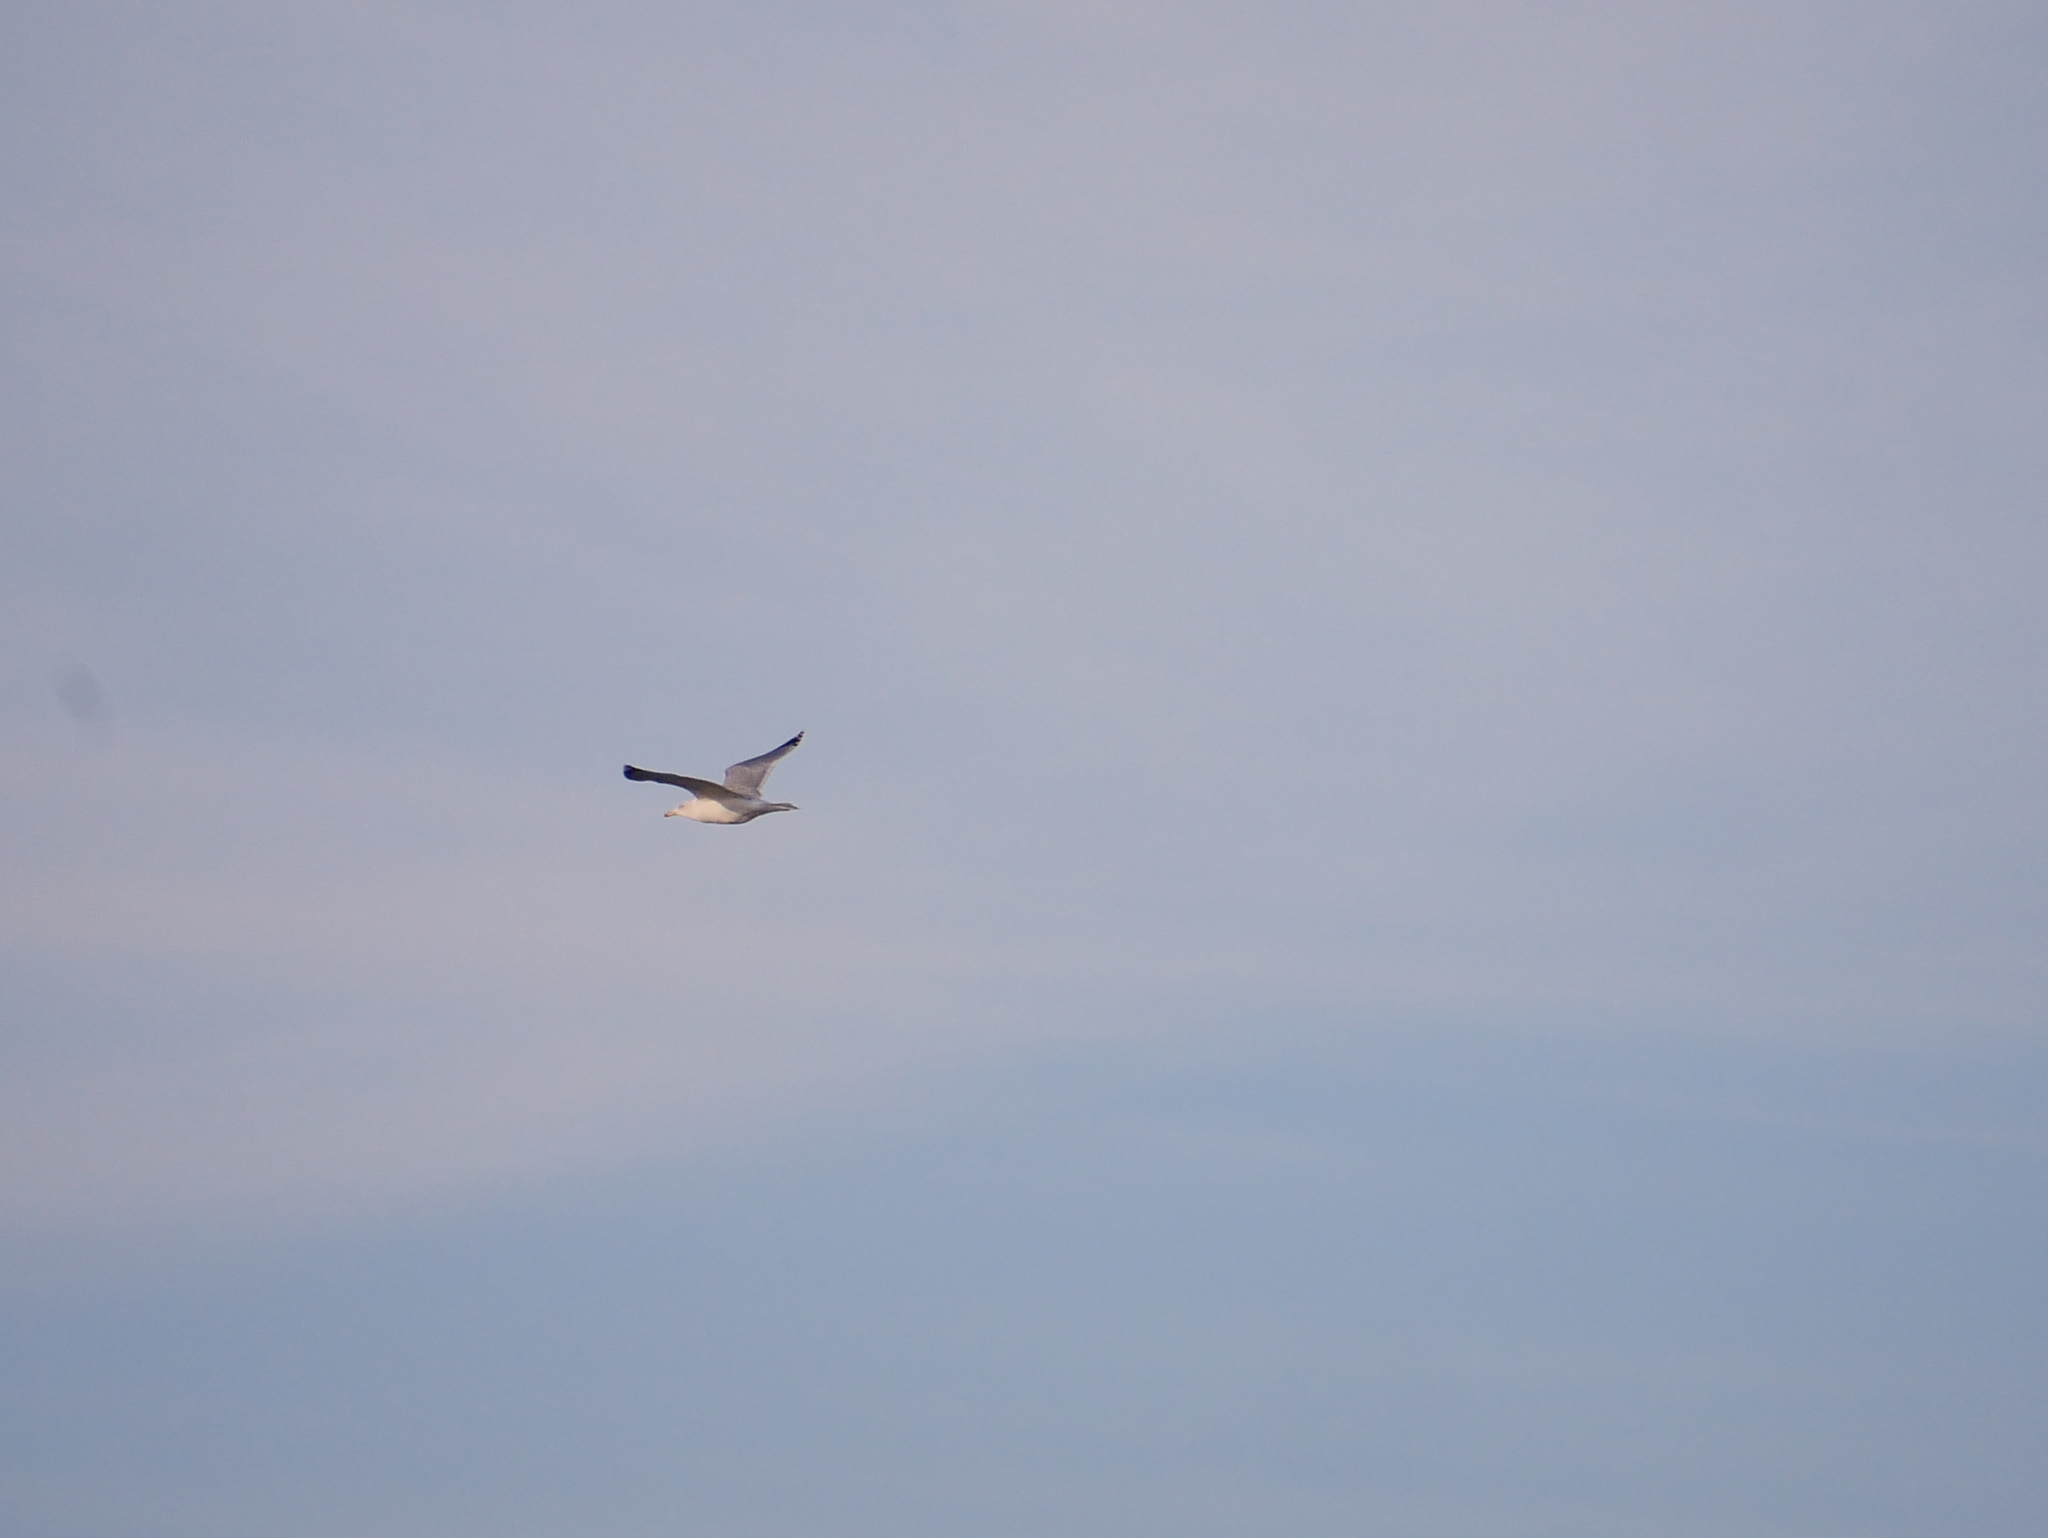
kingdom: Animalia
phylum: Chordata
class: Aves
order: Charadriiformes
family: Laridae
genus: Larus
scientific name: Larus argentatus
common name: Herring gull
